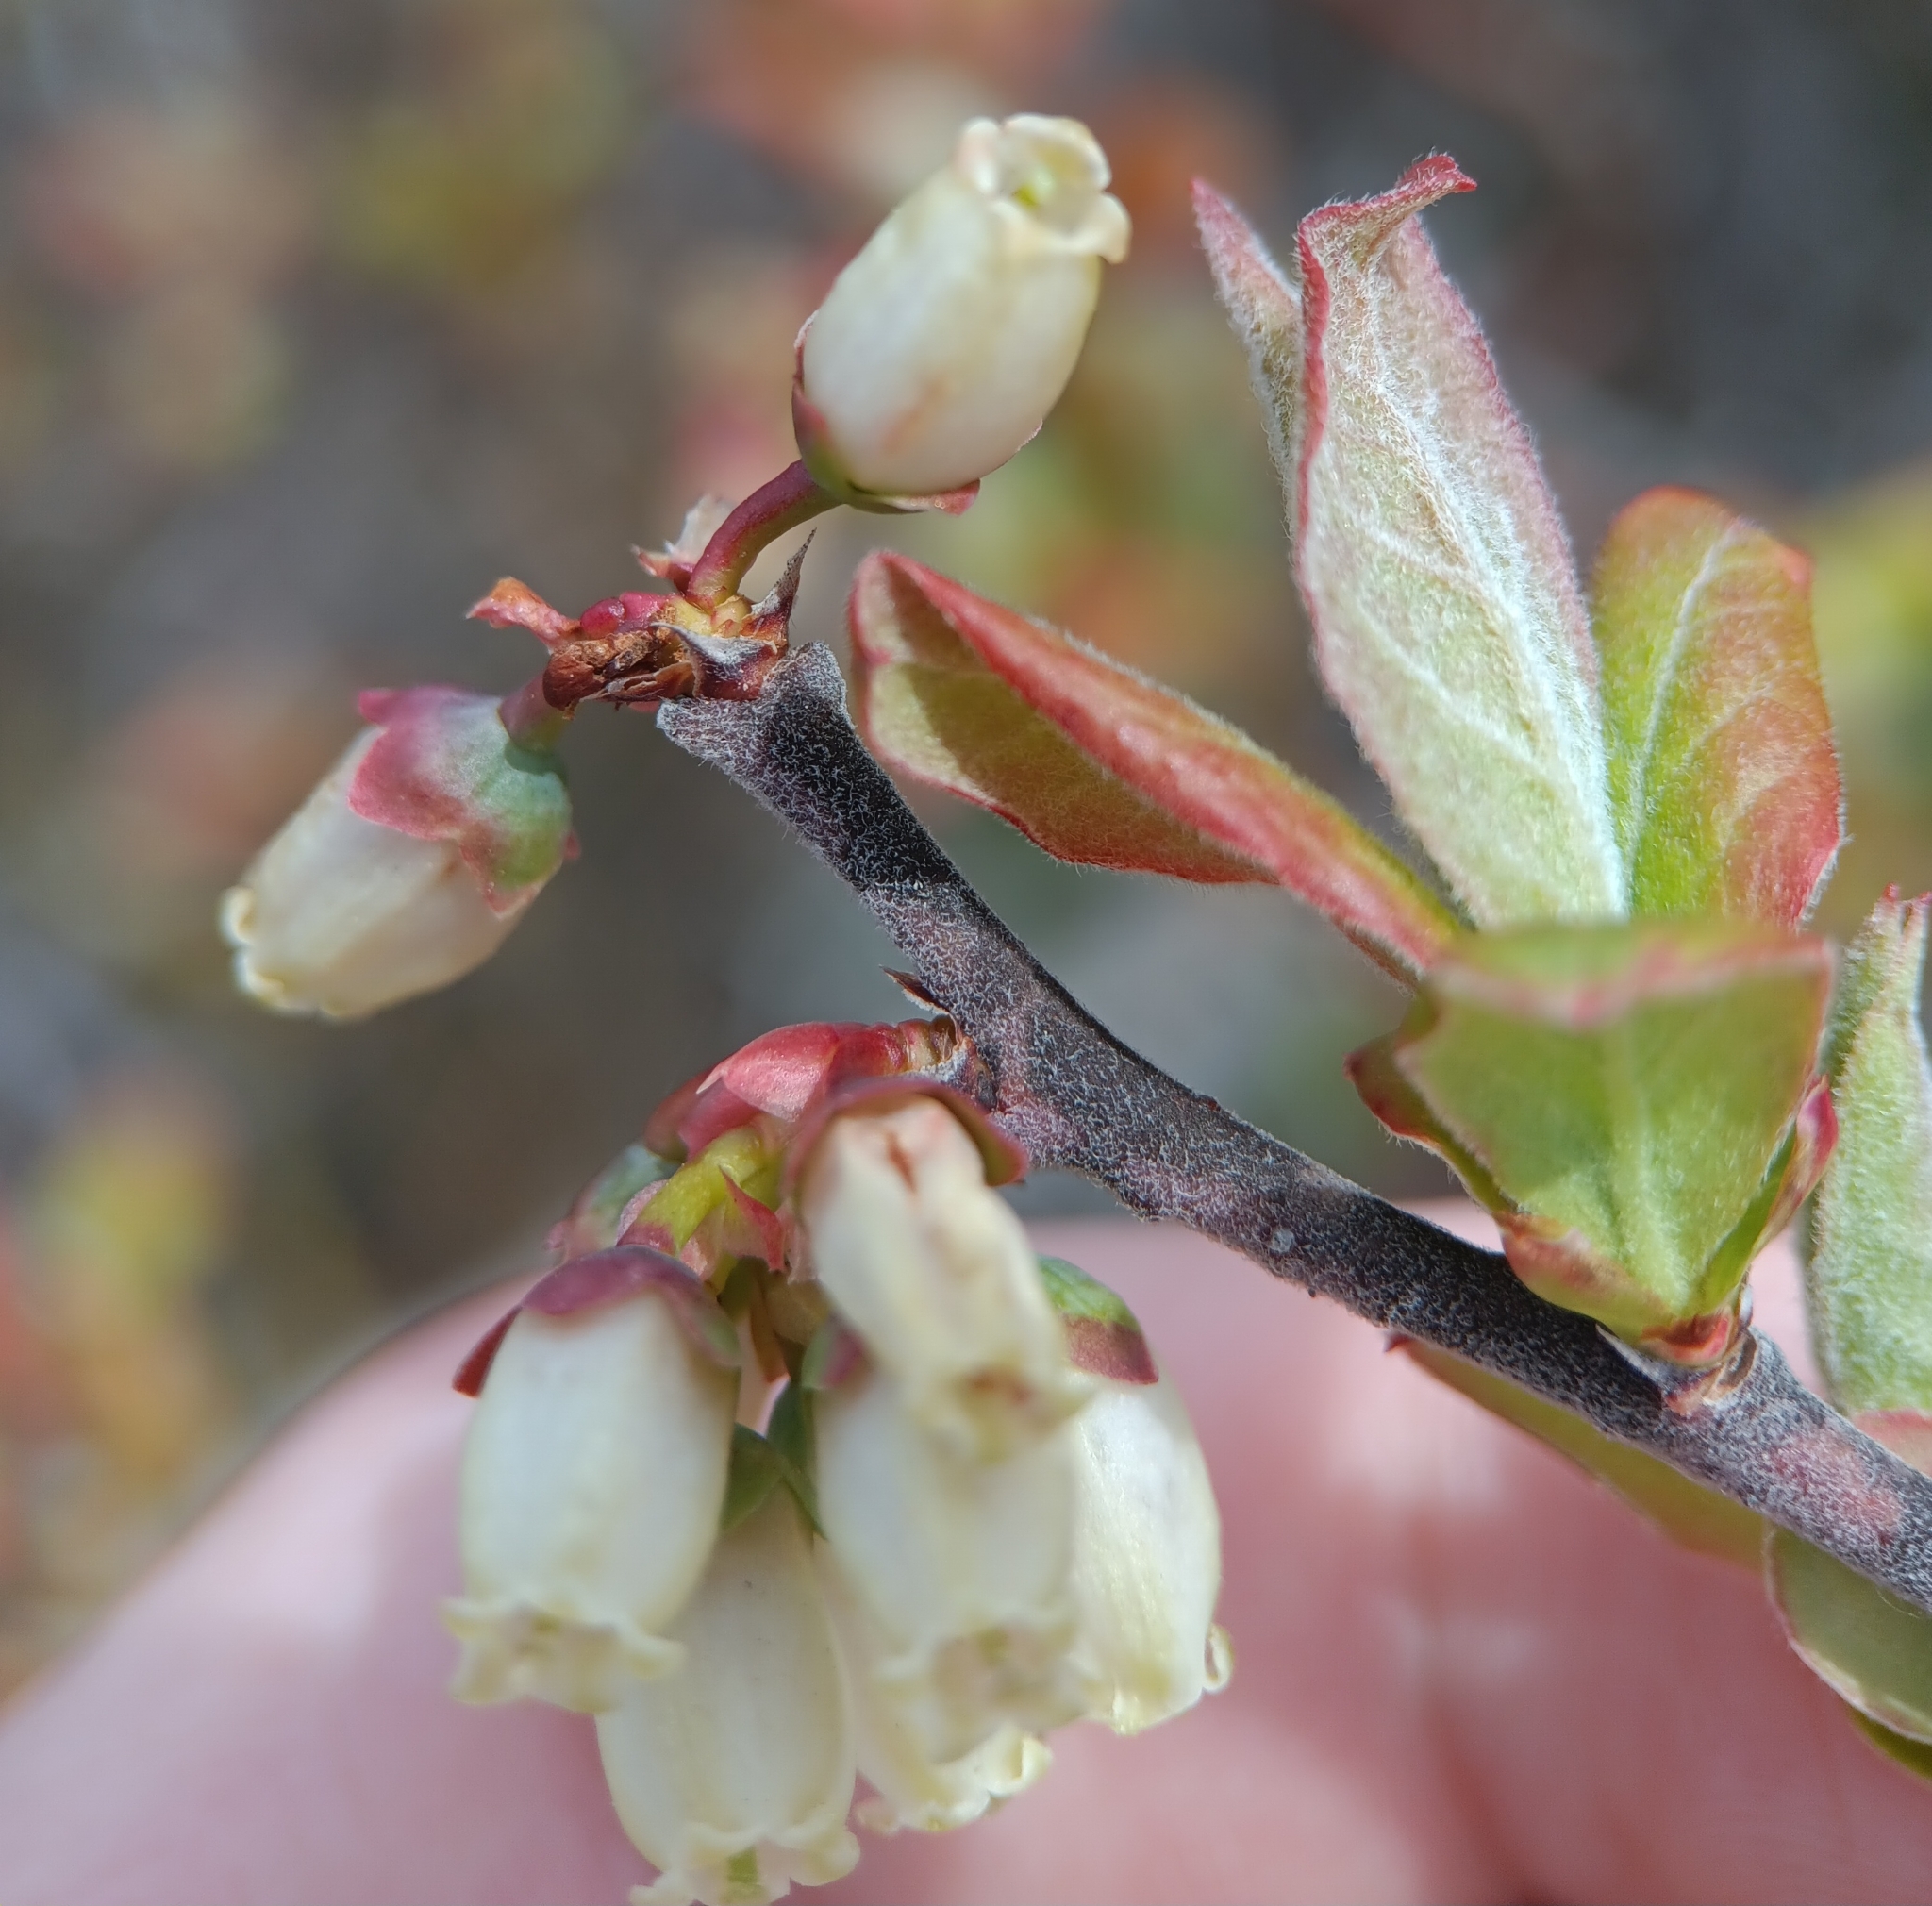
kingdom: Plantae
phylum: Tracheophyta
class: Magnoliopsida
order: Ericales
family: Ericaceae
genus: Vaccinium
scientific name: Vaccinium corymbosum
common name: Blueberry
